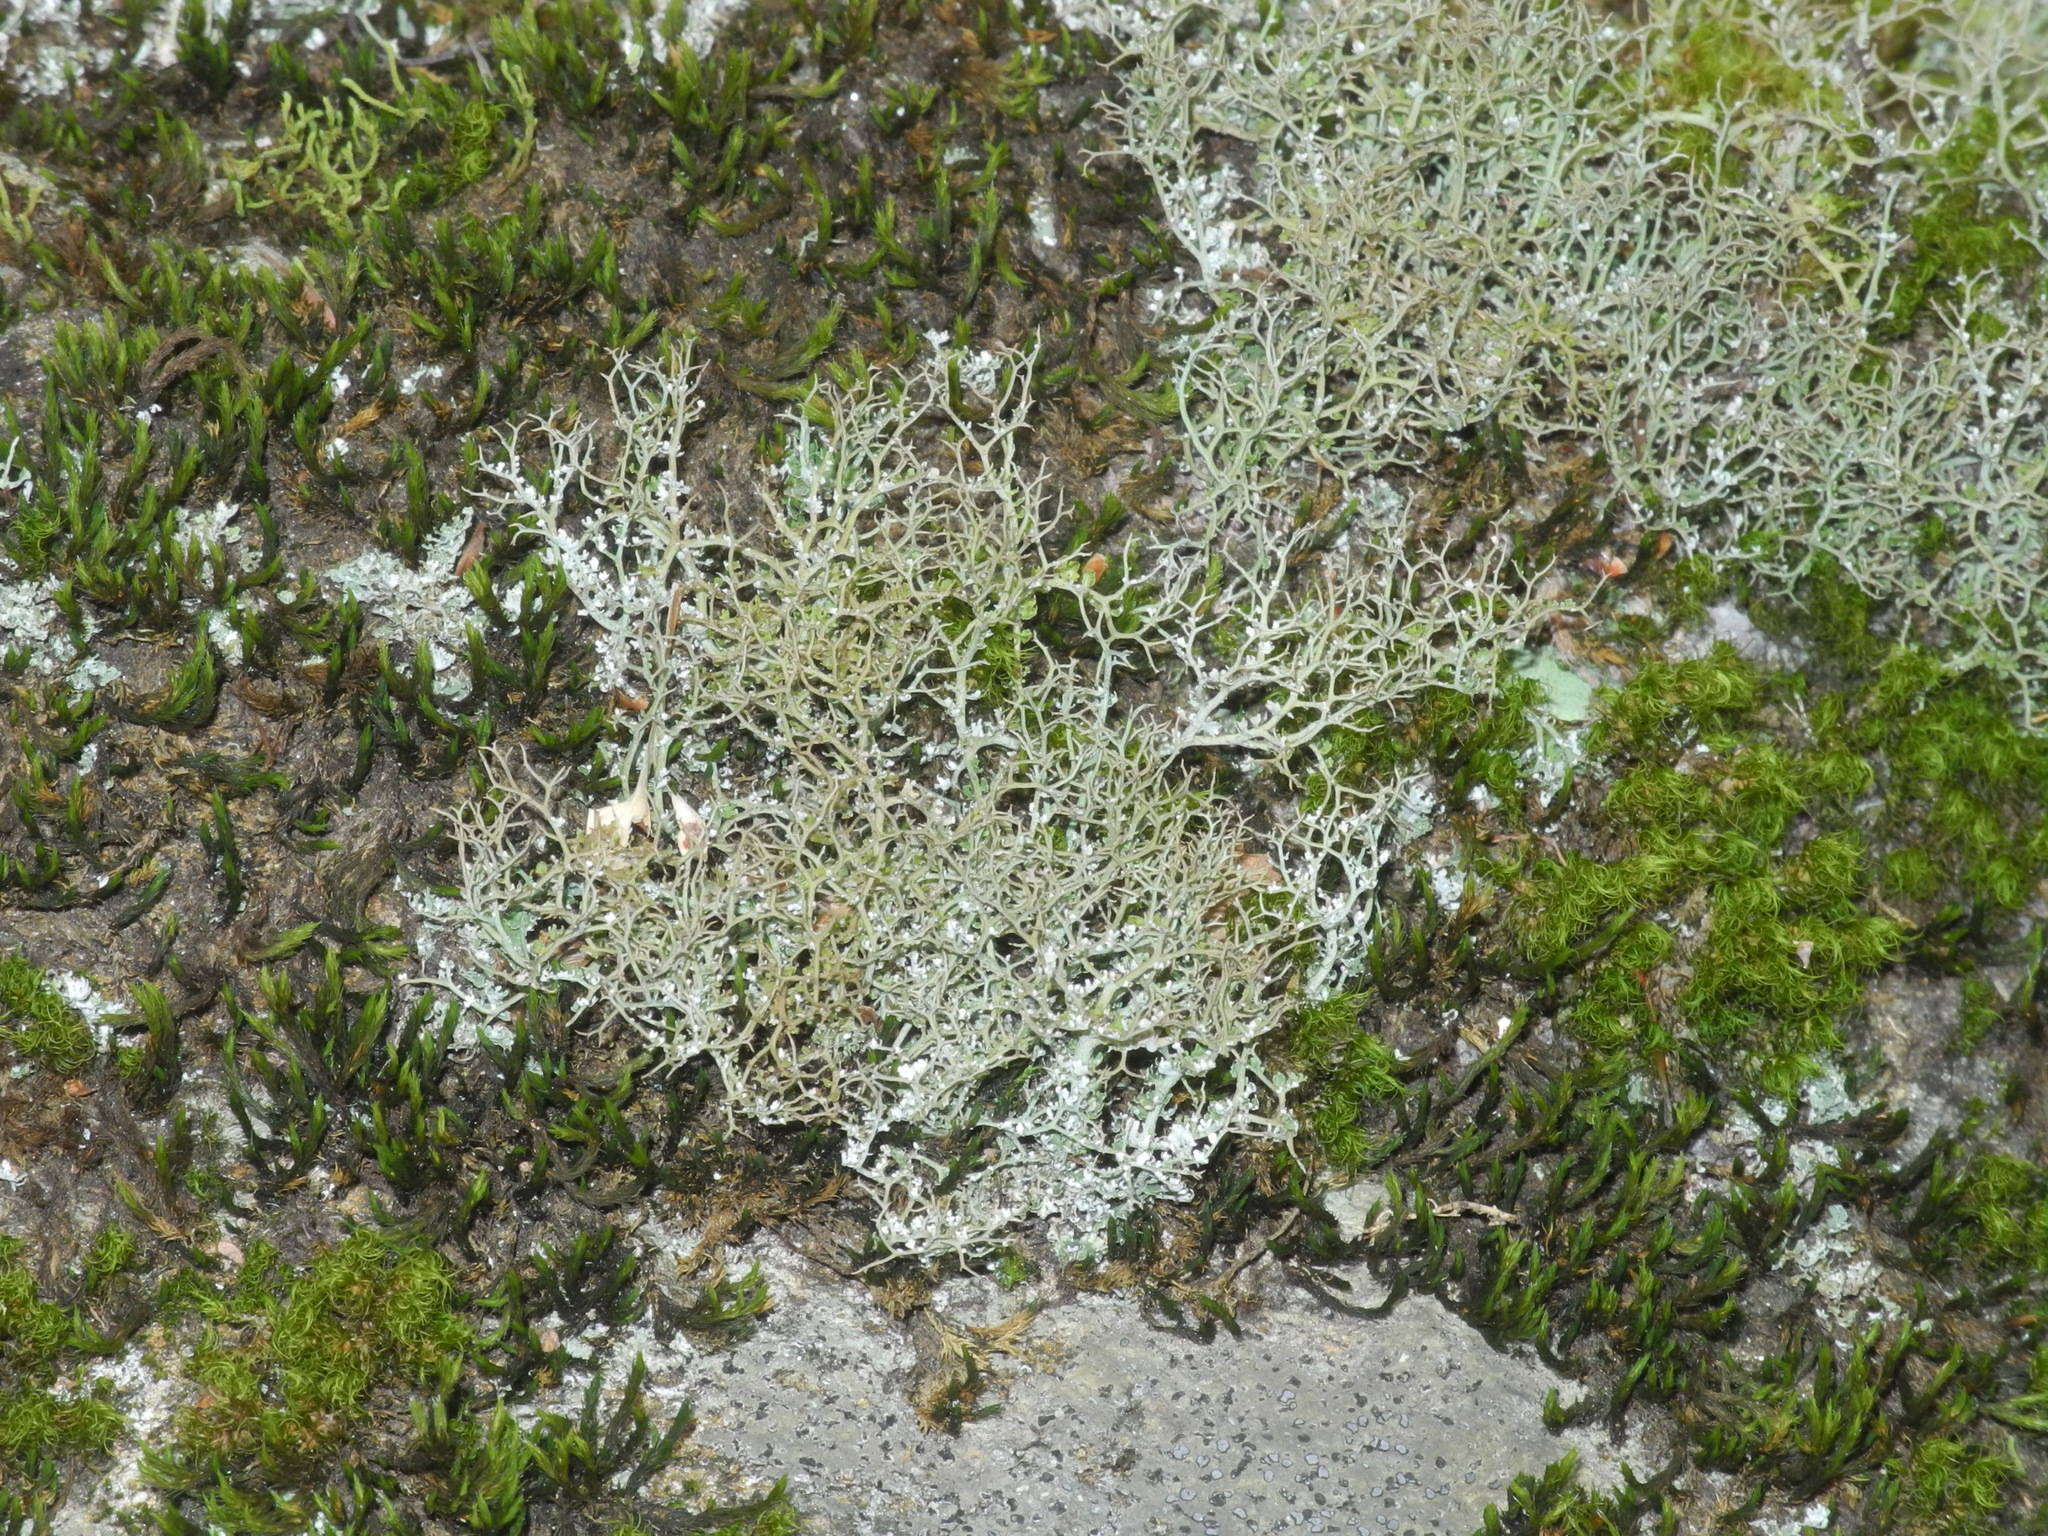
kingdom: Fungi
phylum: Ascomycota
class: Lecanoromycetes
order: Lecanorales
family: Cladoniaceae
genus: Cladonia
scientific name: Cladonia furcata
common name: Many-forked cladonia
